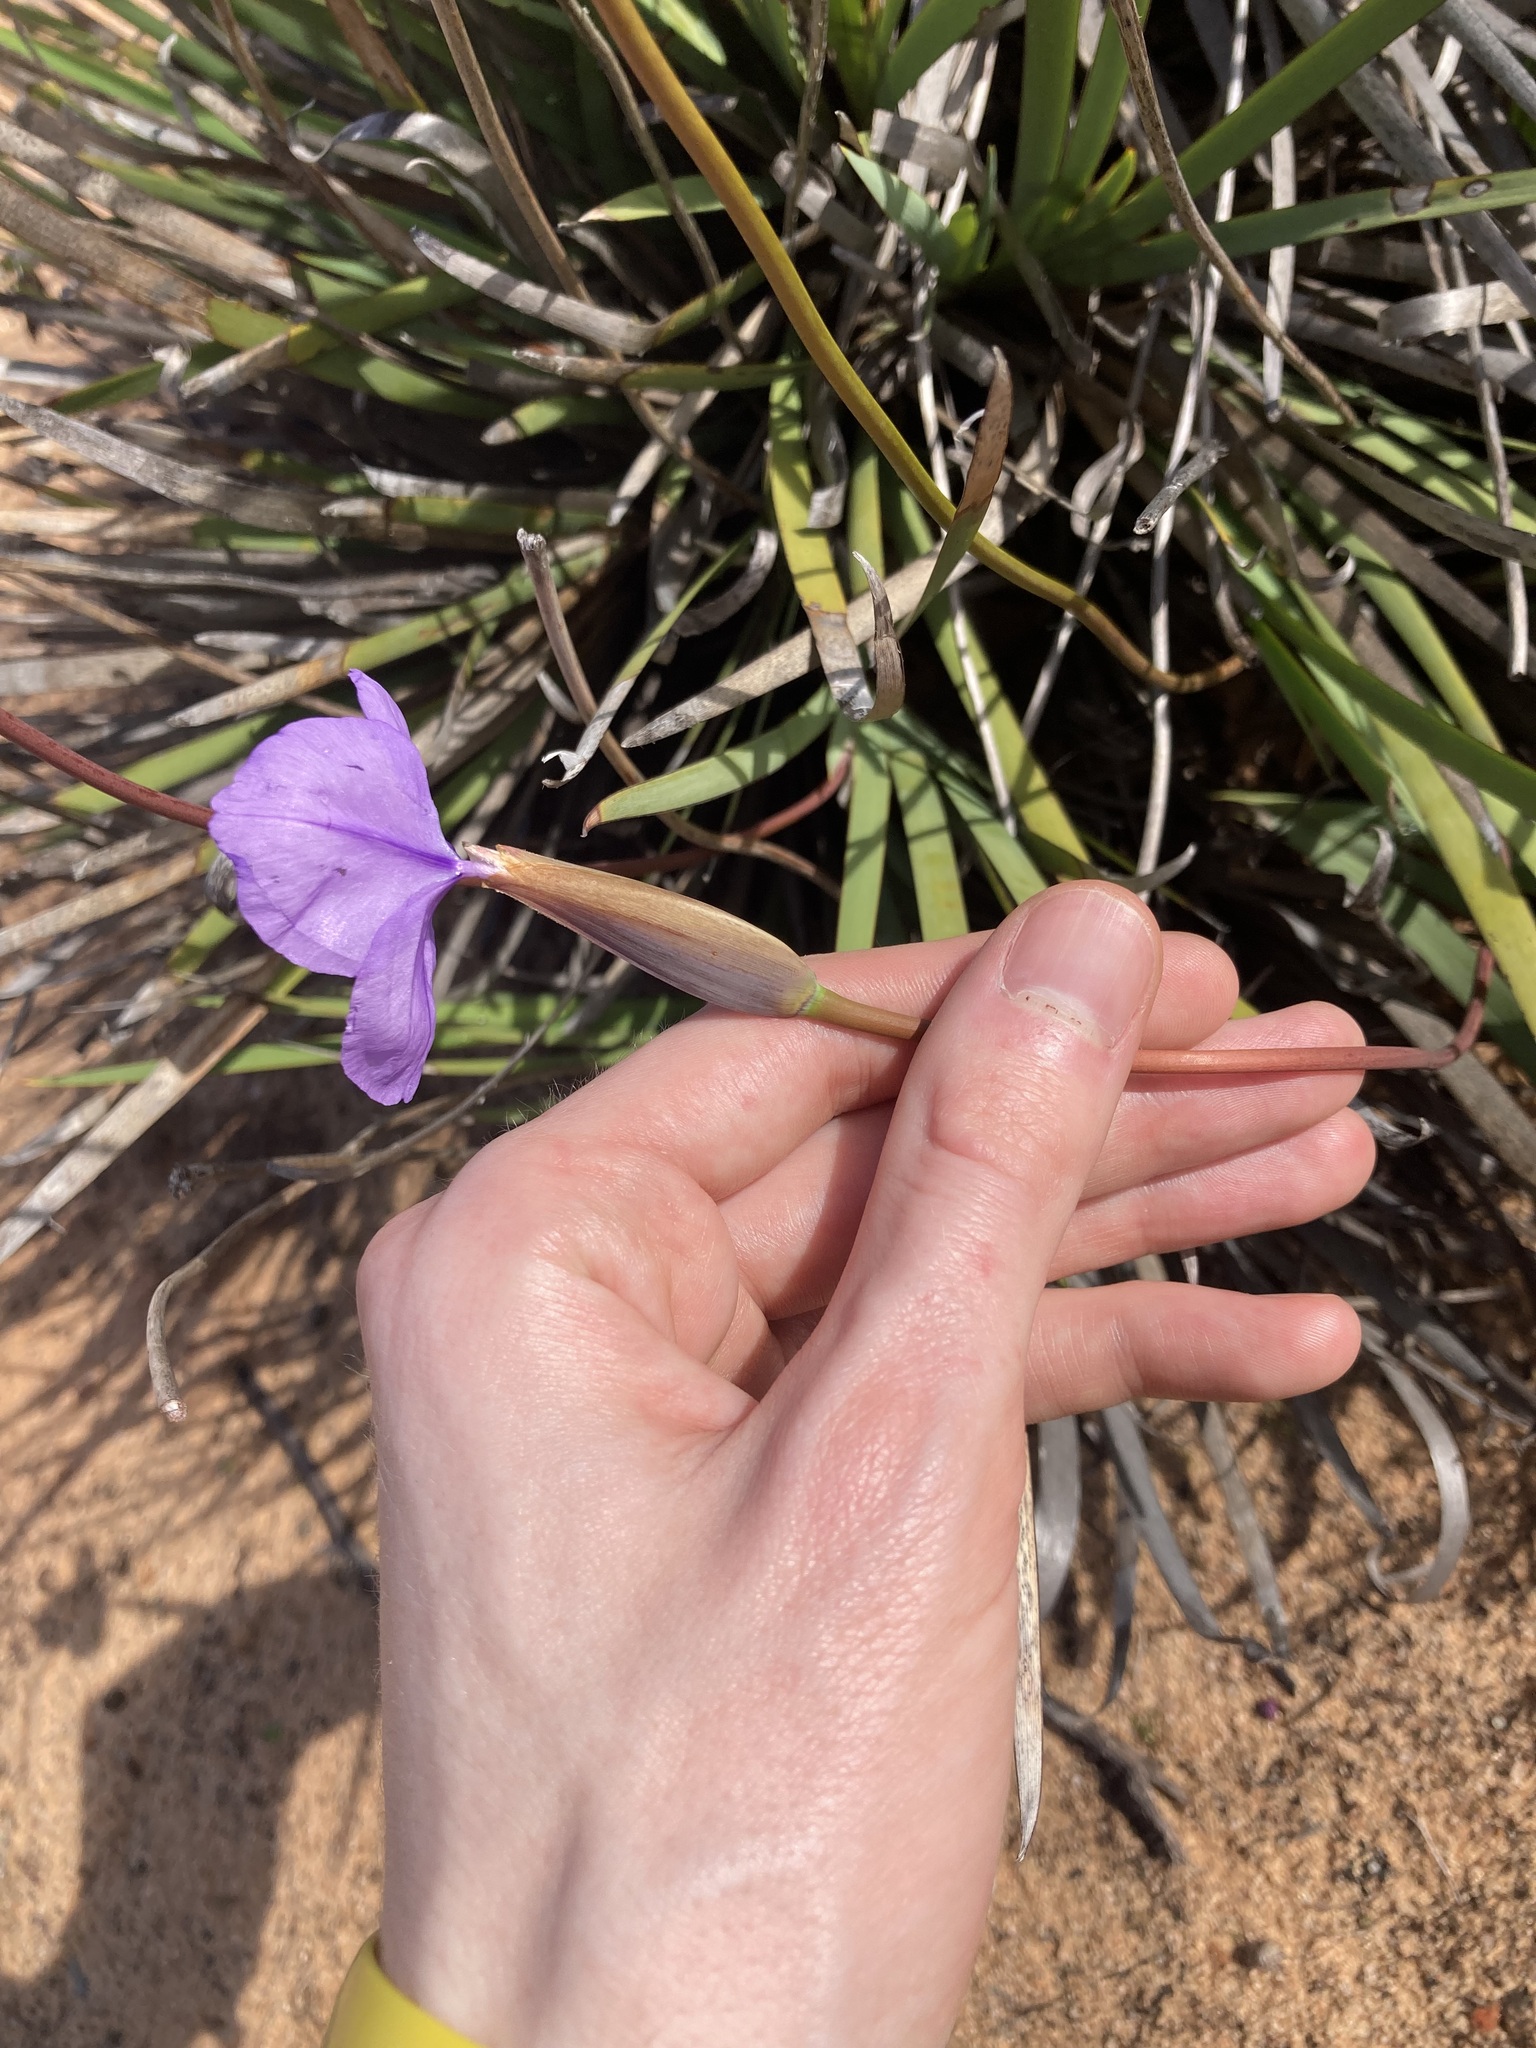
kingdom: Plantae
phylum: Tracheophyta
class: Liliopsida
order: Asparagales
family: Iridaceae
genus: Patersonia
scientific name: Patersonia occidentalis
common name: Long purple-flag
